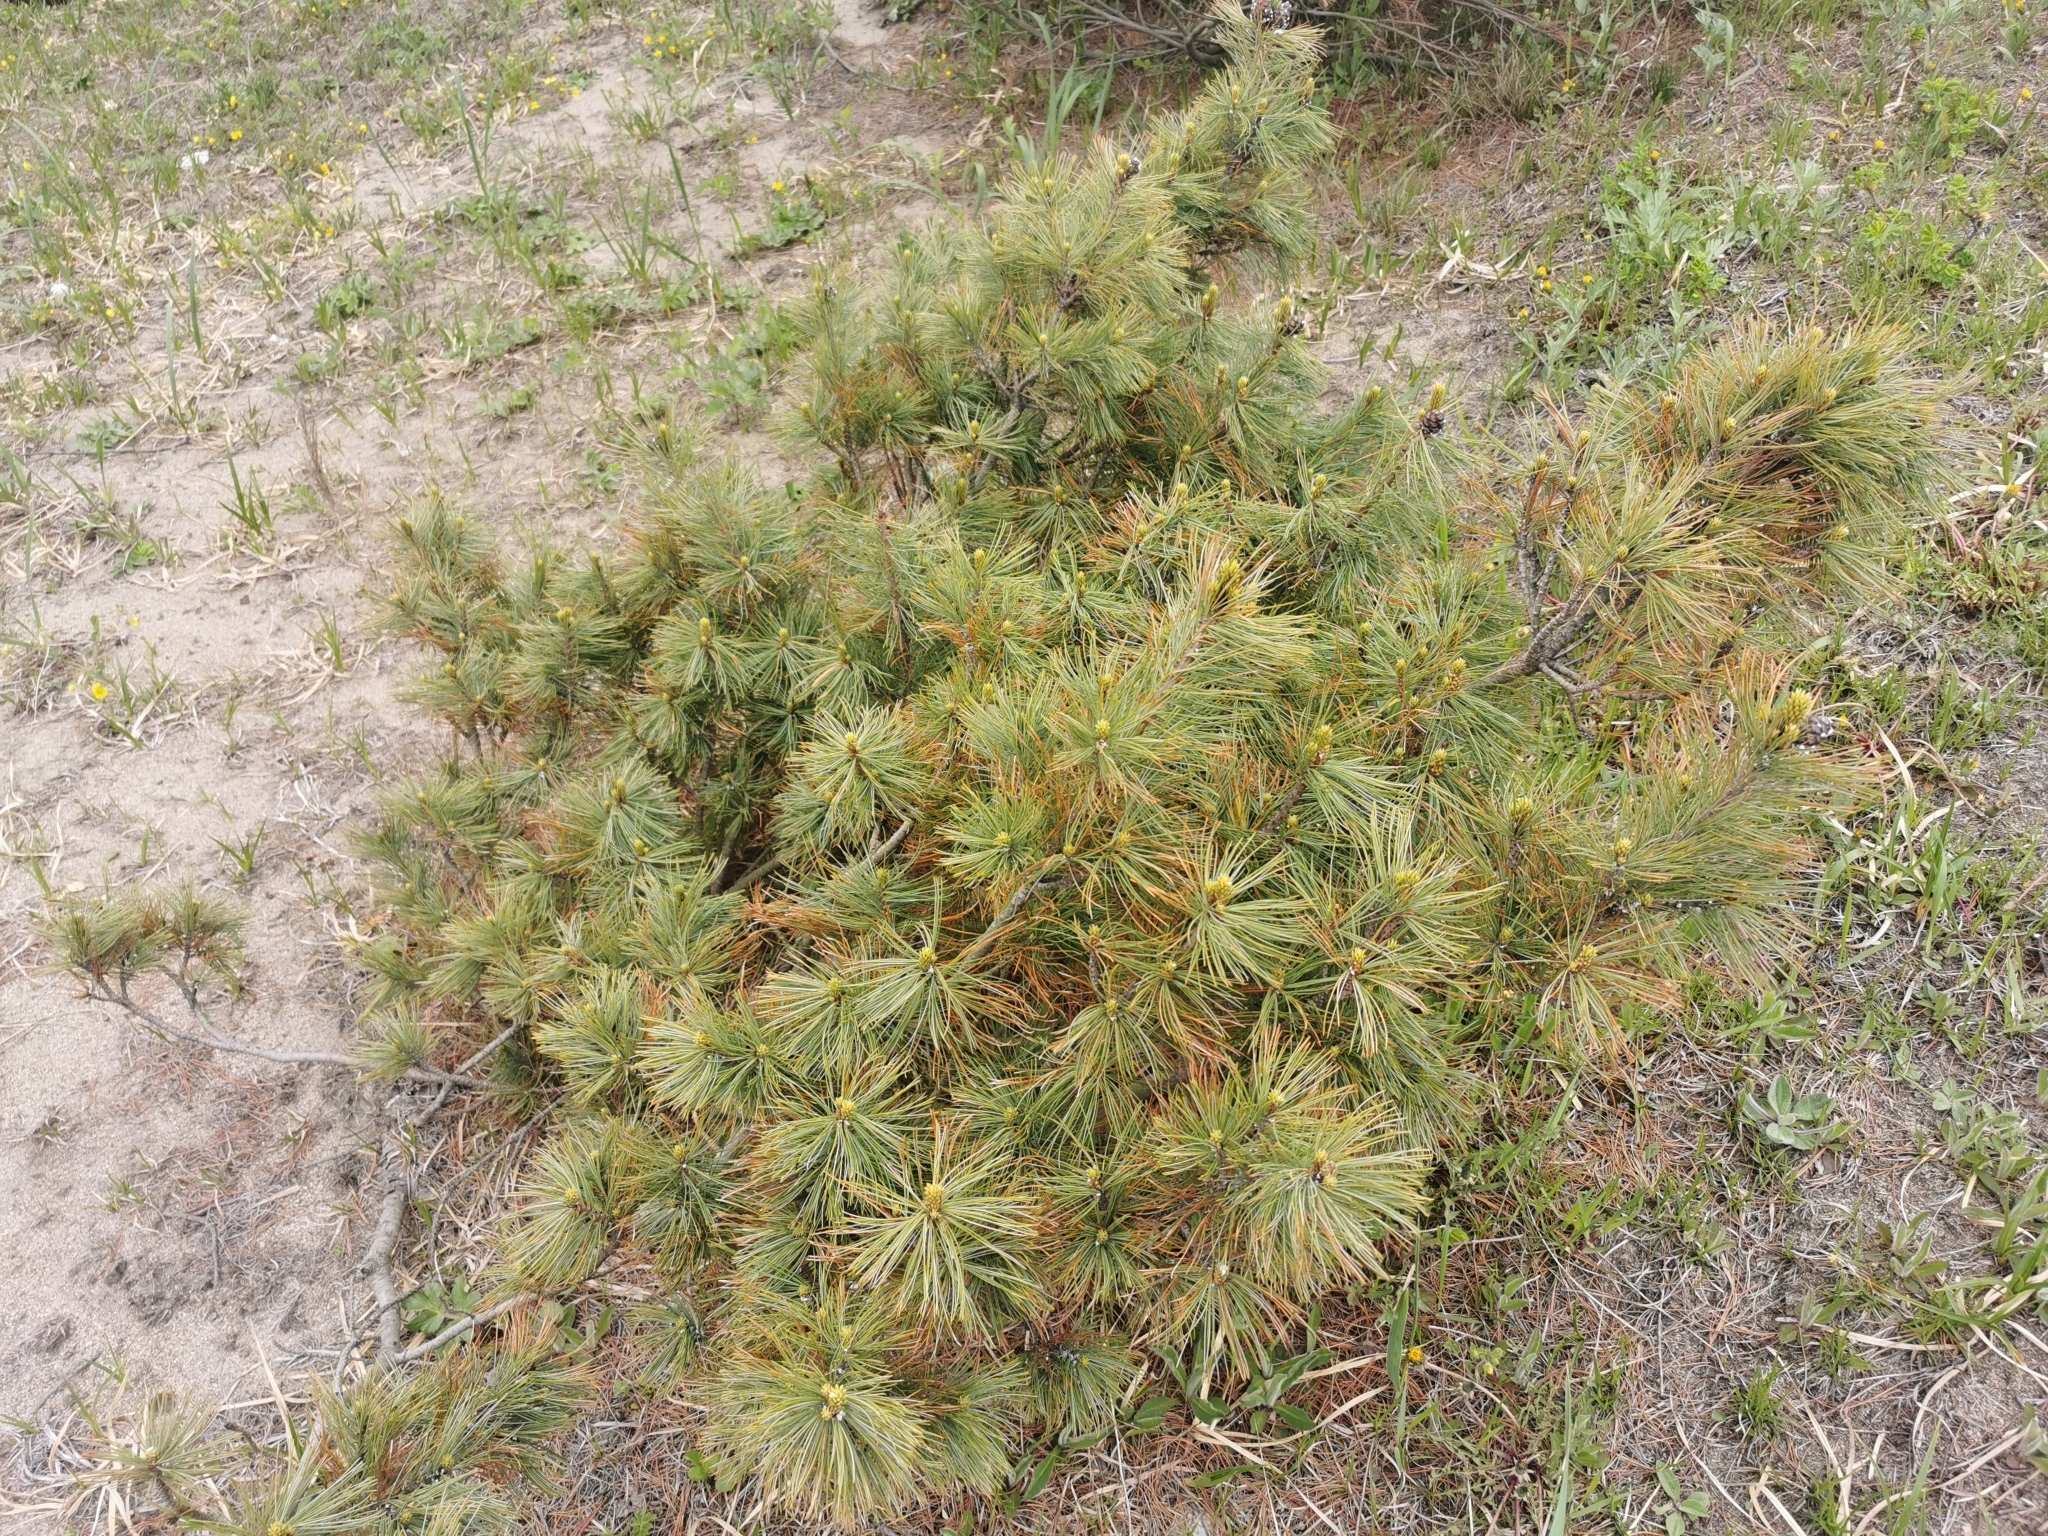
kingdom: Plantae
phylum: Tracheophyta
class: Pinopsida
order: Pinales
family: Pinaceae
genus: Pinus
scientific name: Pinus pumila
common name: Dwarf siberian pine
